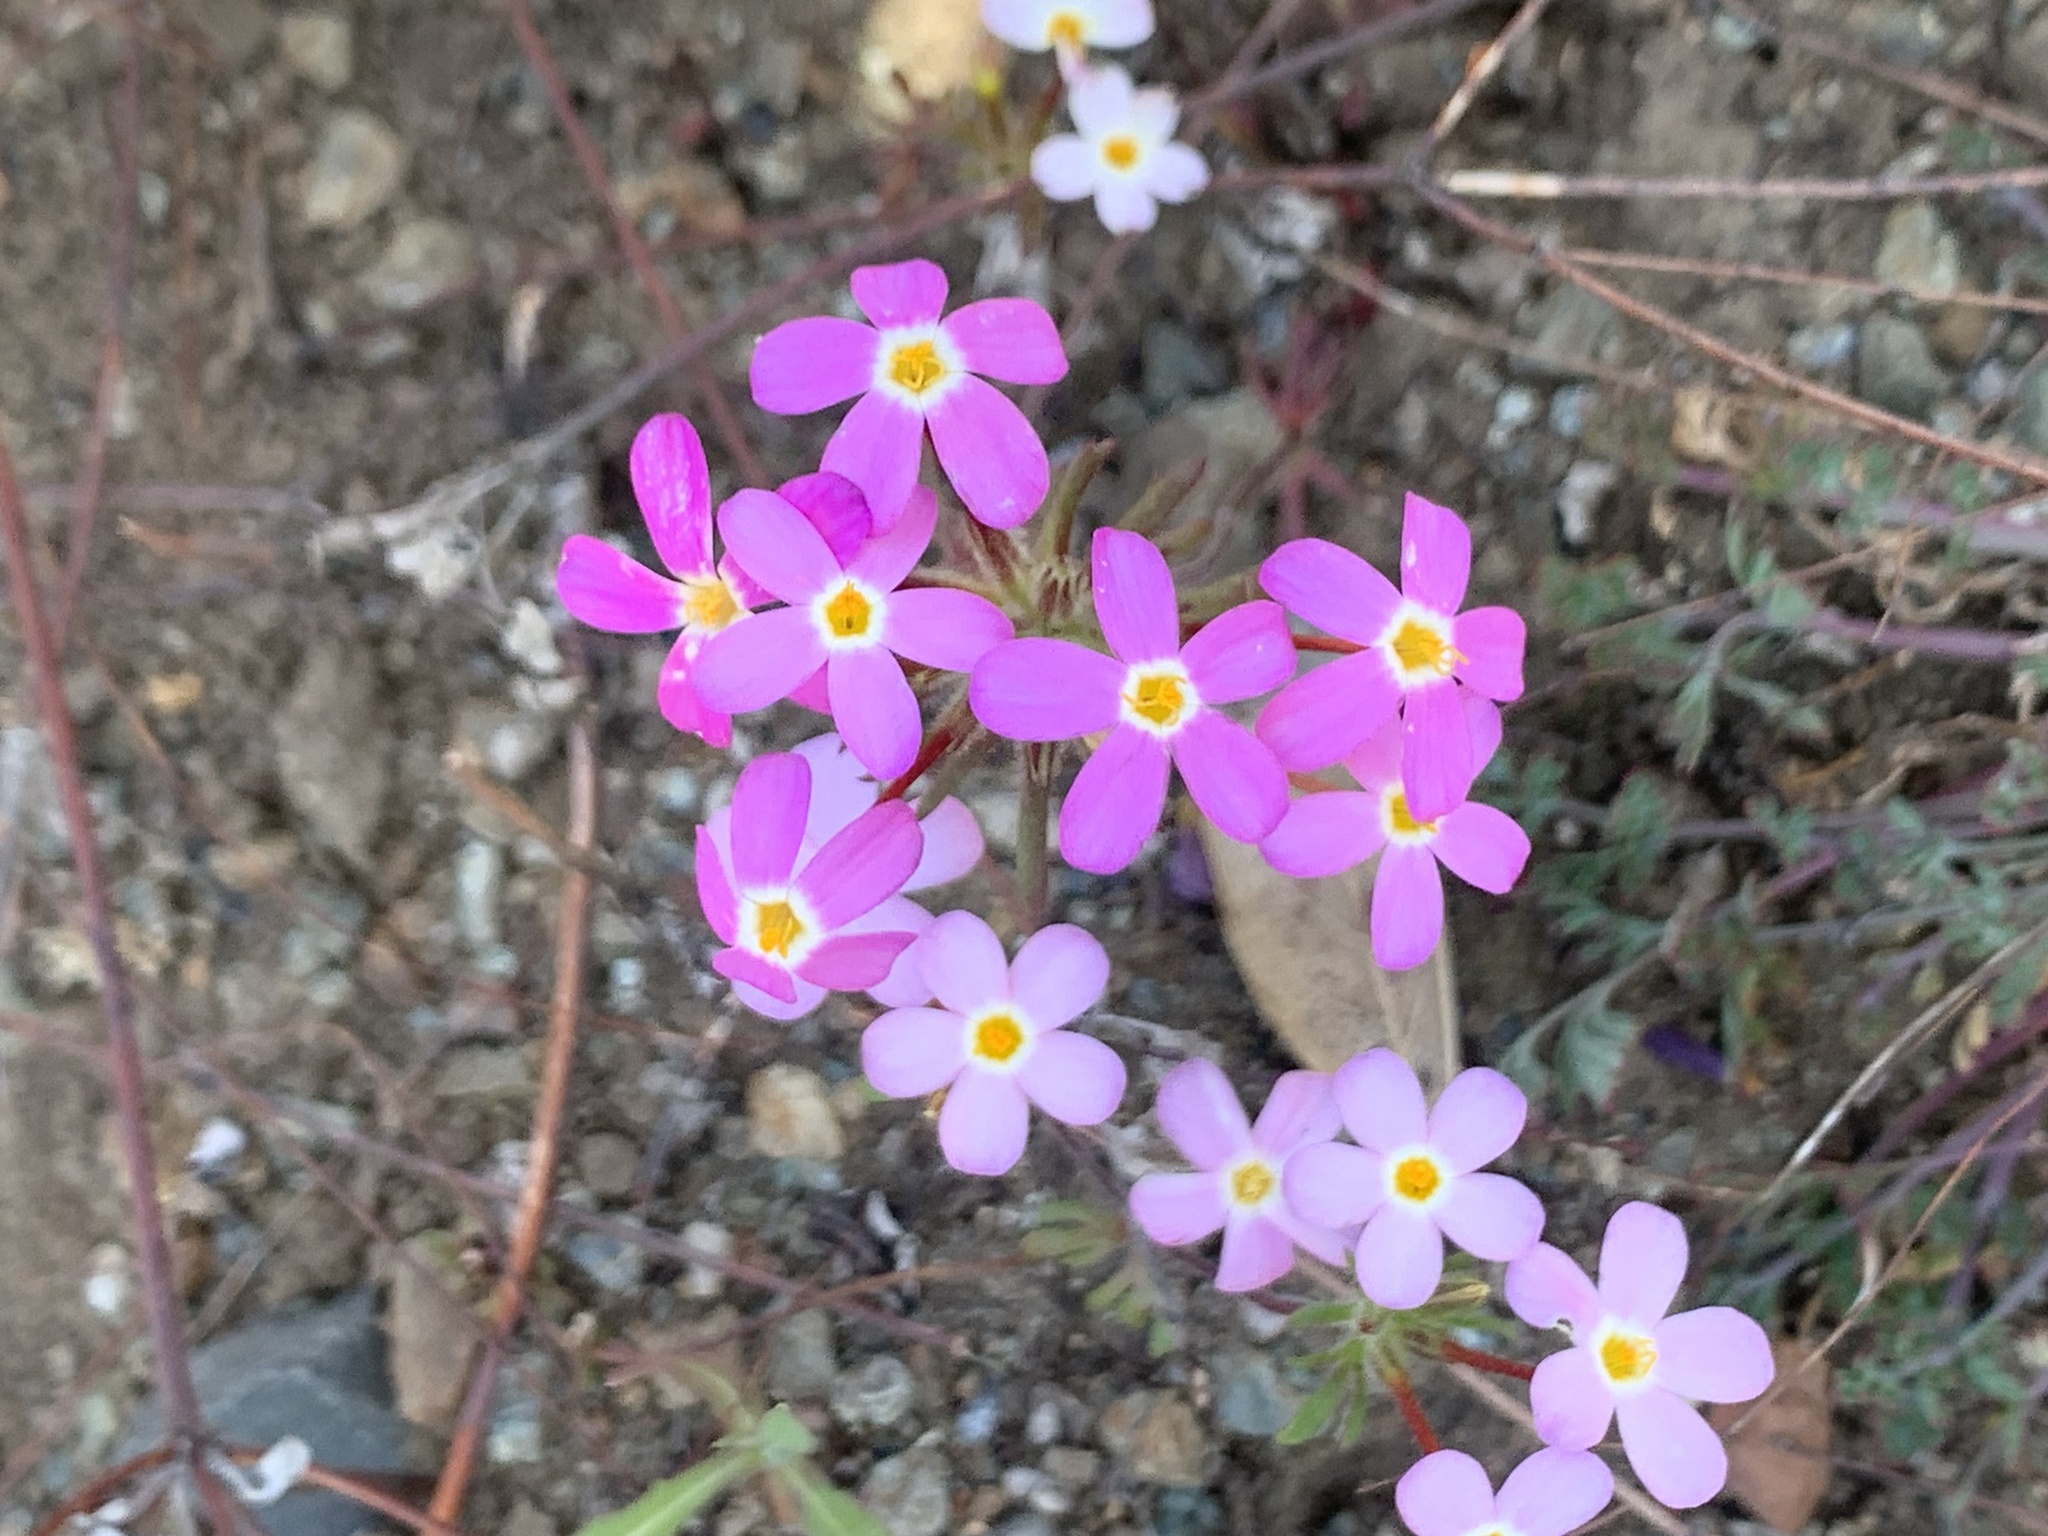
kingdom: Plantae
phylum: Tracheophyta
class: Magnoliopsida
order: Ericales
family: Polemoniaceae
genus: Leptosiphon
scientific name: Leptosiphon latisectus
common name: Coast range linanthus
